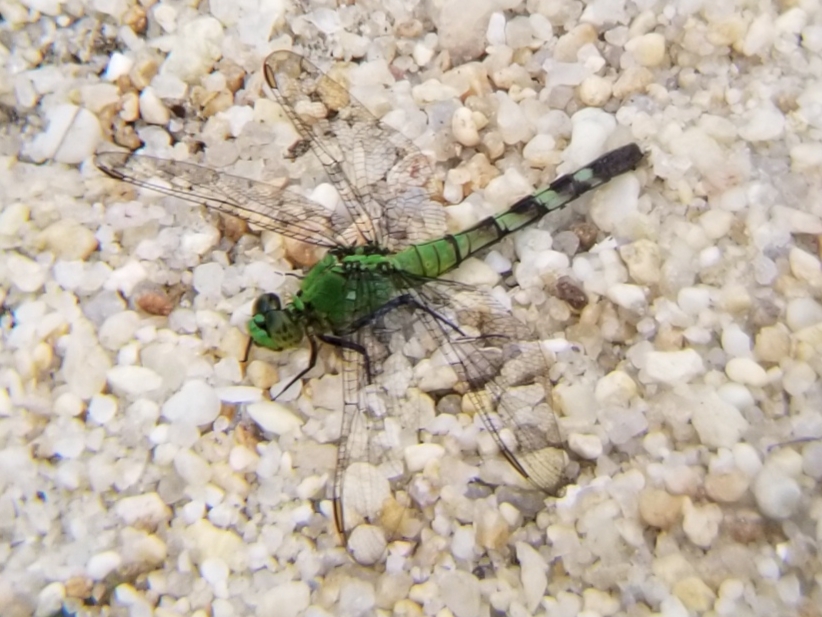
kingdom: Animalia
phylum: Arthropoda
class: Insecta
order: Odonata
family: Libellulidae
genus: Erythemis
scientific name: Erythemis simplicicollis
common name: Eastern pondhawk
